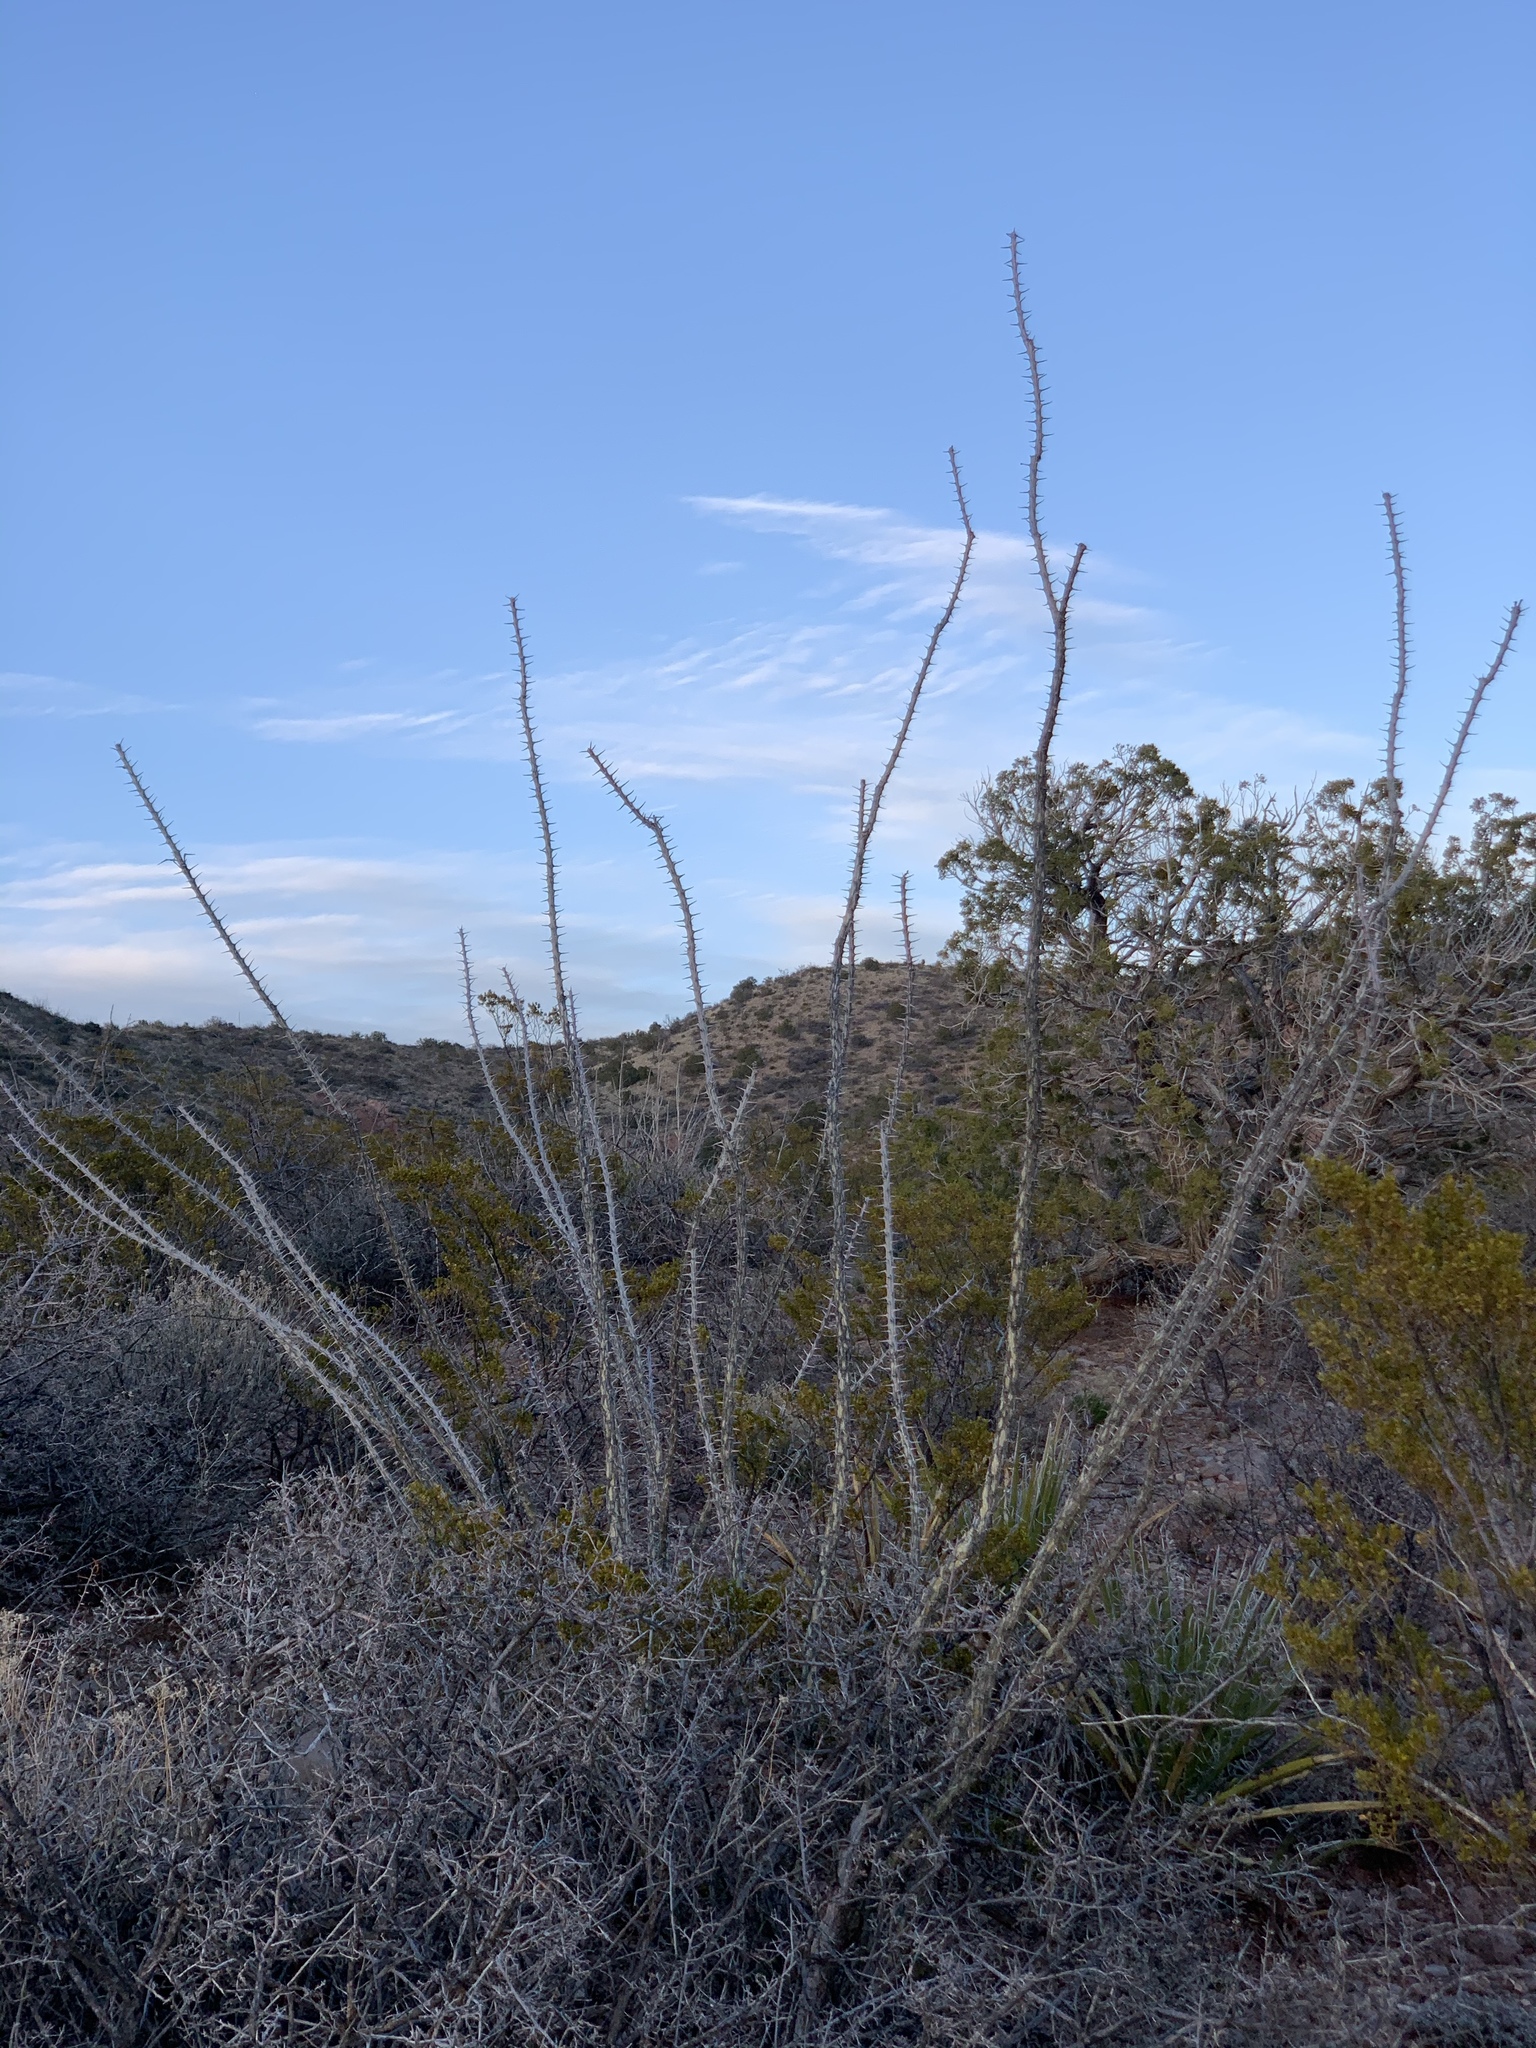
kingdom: Plantae
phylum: Tracheophyta
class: Magnoliopsida
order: Ericales
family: Fouquieriaceae
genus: Fouquieria
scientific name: Fouquieria splendens
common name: Vine-cactus
